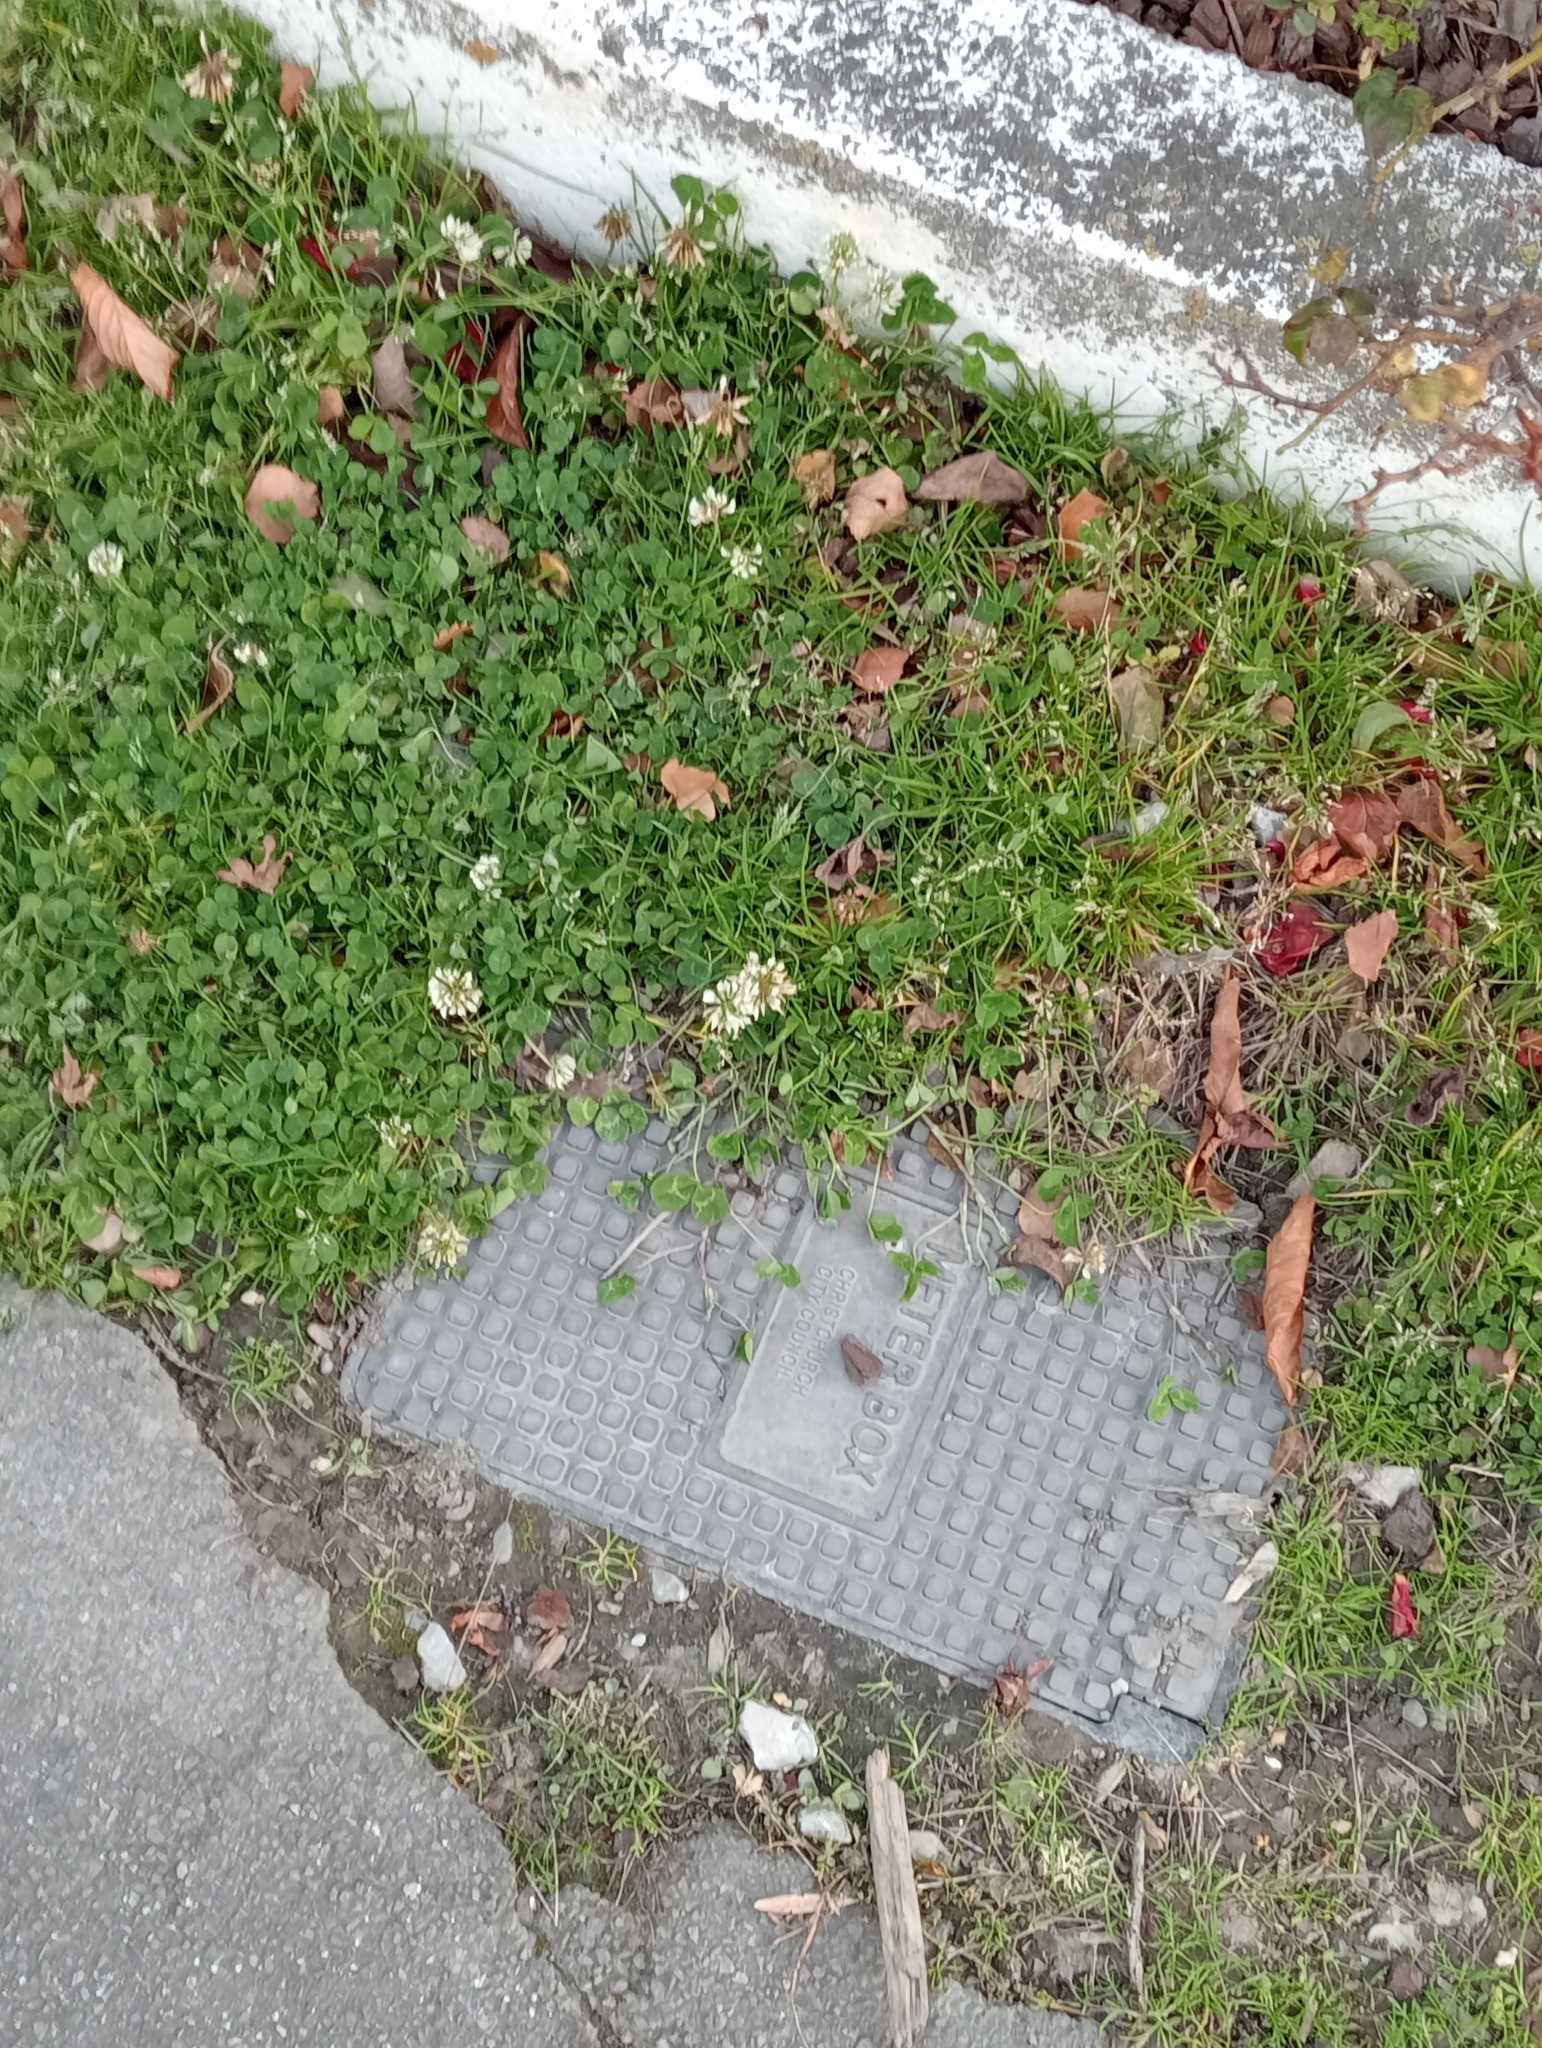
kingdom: Plantae
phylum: Tracheophyta
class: Magnoliopsida
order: Fabales
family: Fabaceae
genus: Trifolium
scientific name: Trifolium repens
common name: White clover
